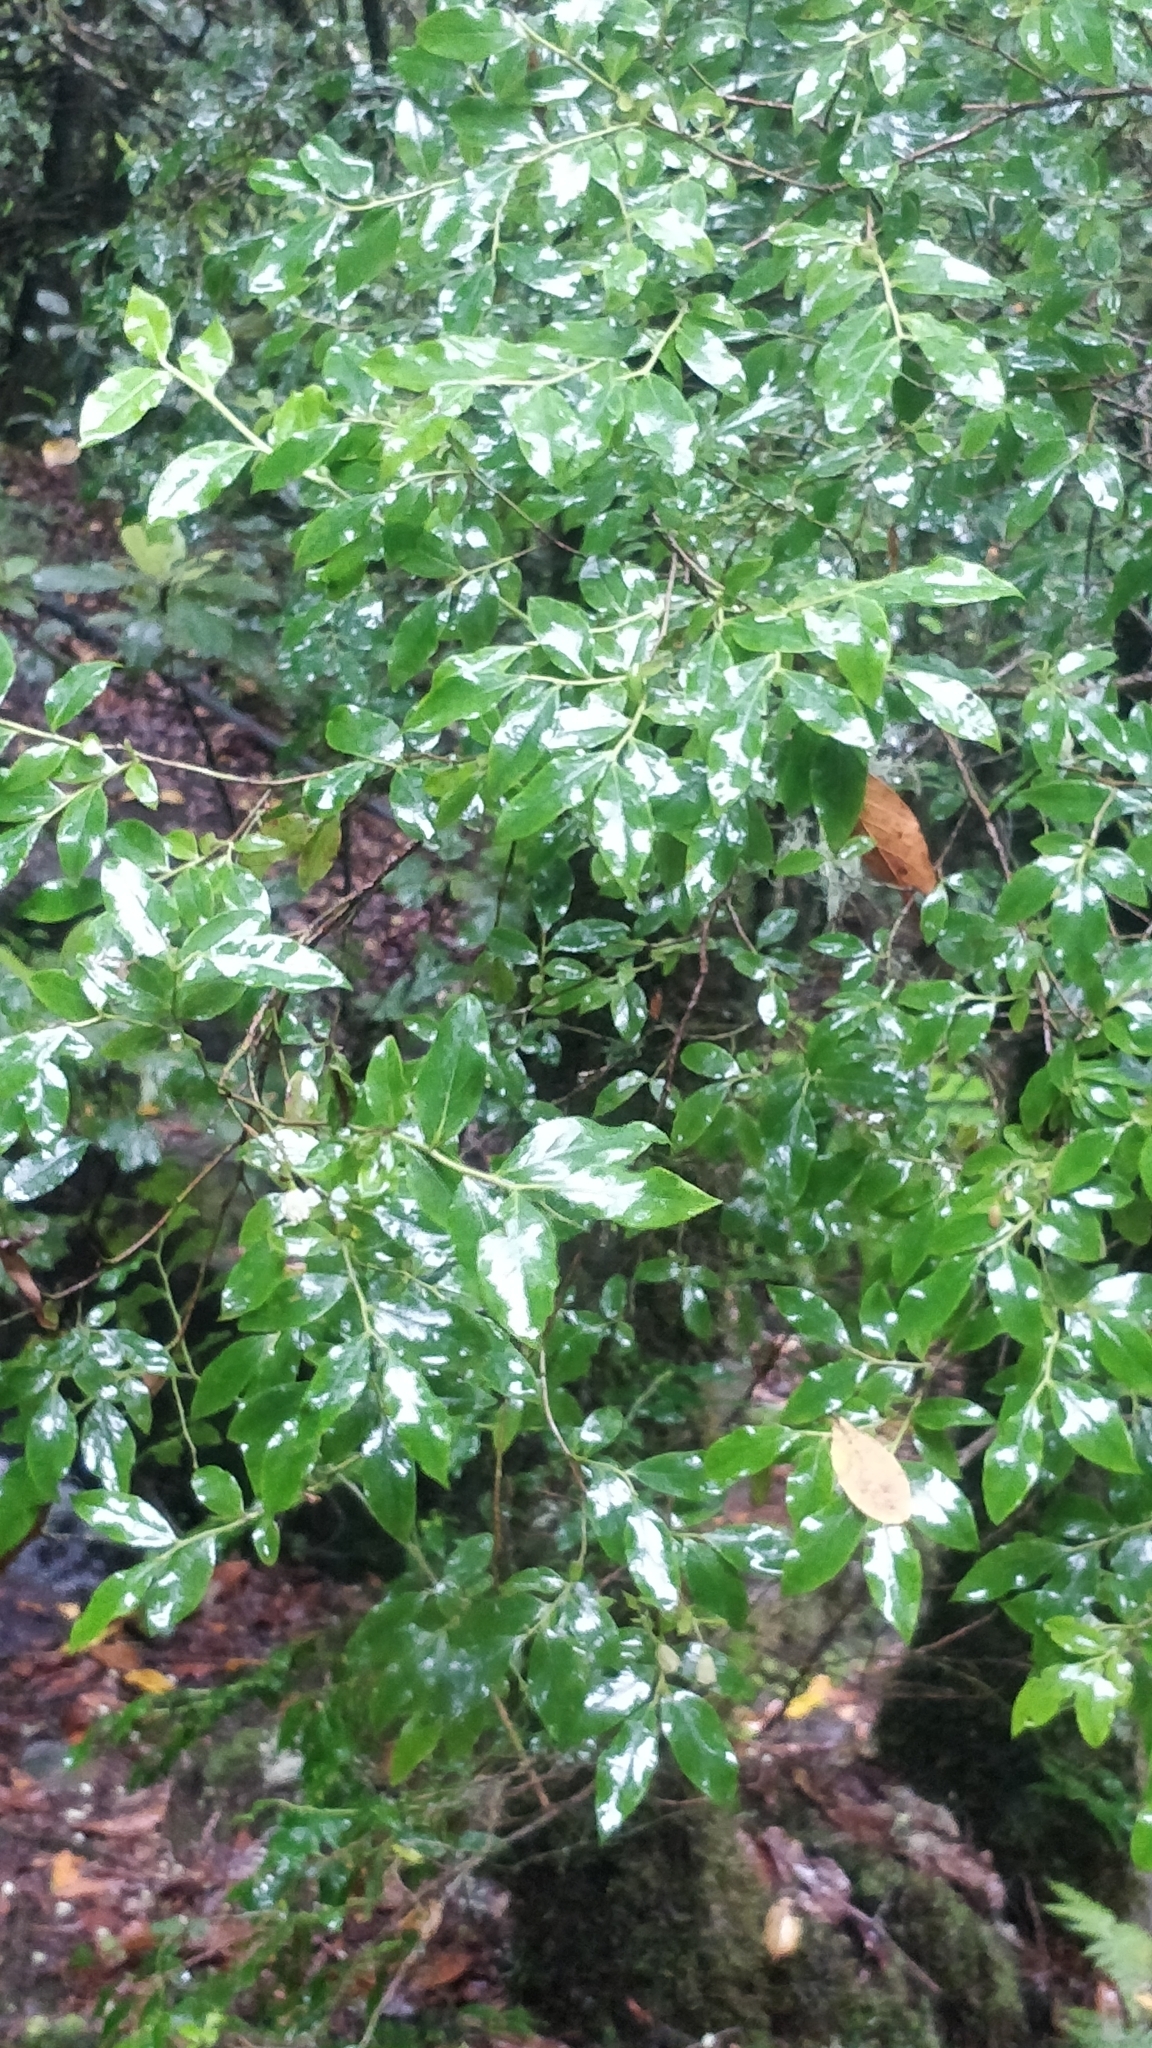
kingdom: Plantae
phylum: Tracheophyta
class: Magnoliopsida
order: Ericales
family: Ericaceae
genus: Vaccinium
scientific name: Vaccinium padifolium
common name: Madeiran blueberry
